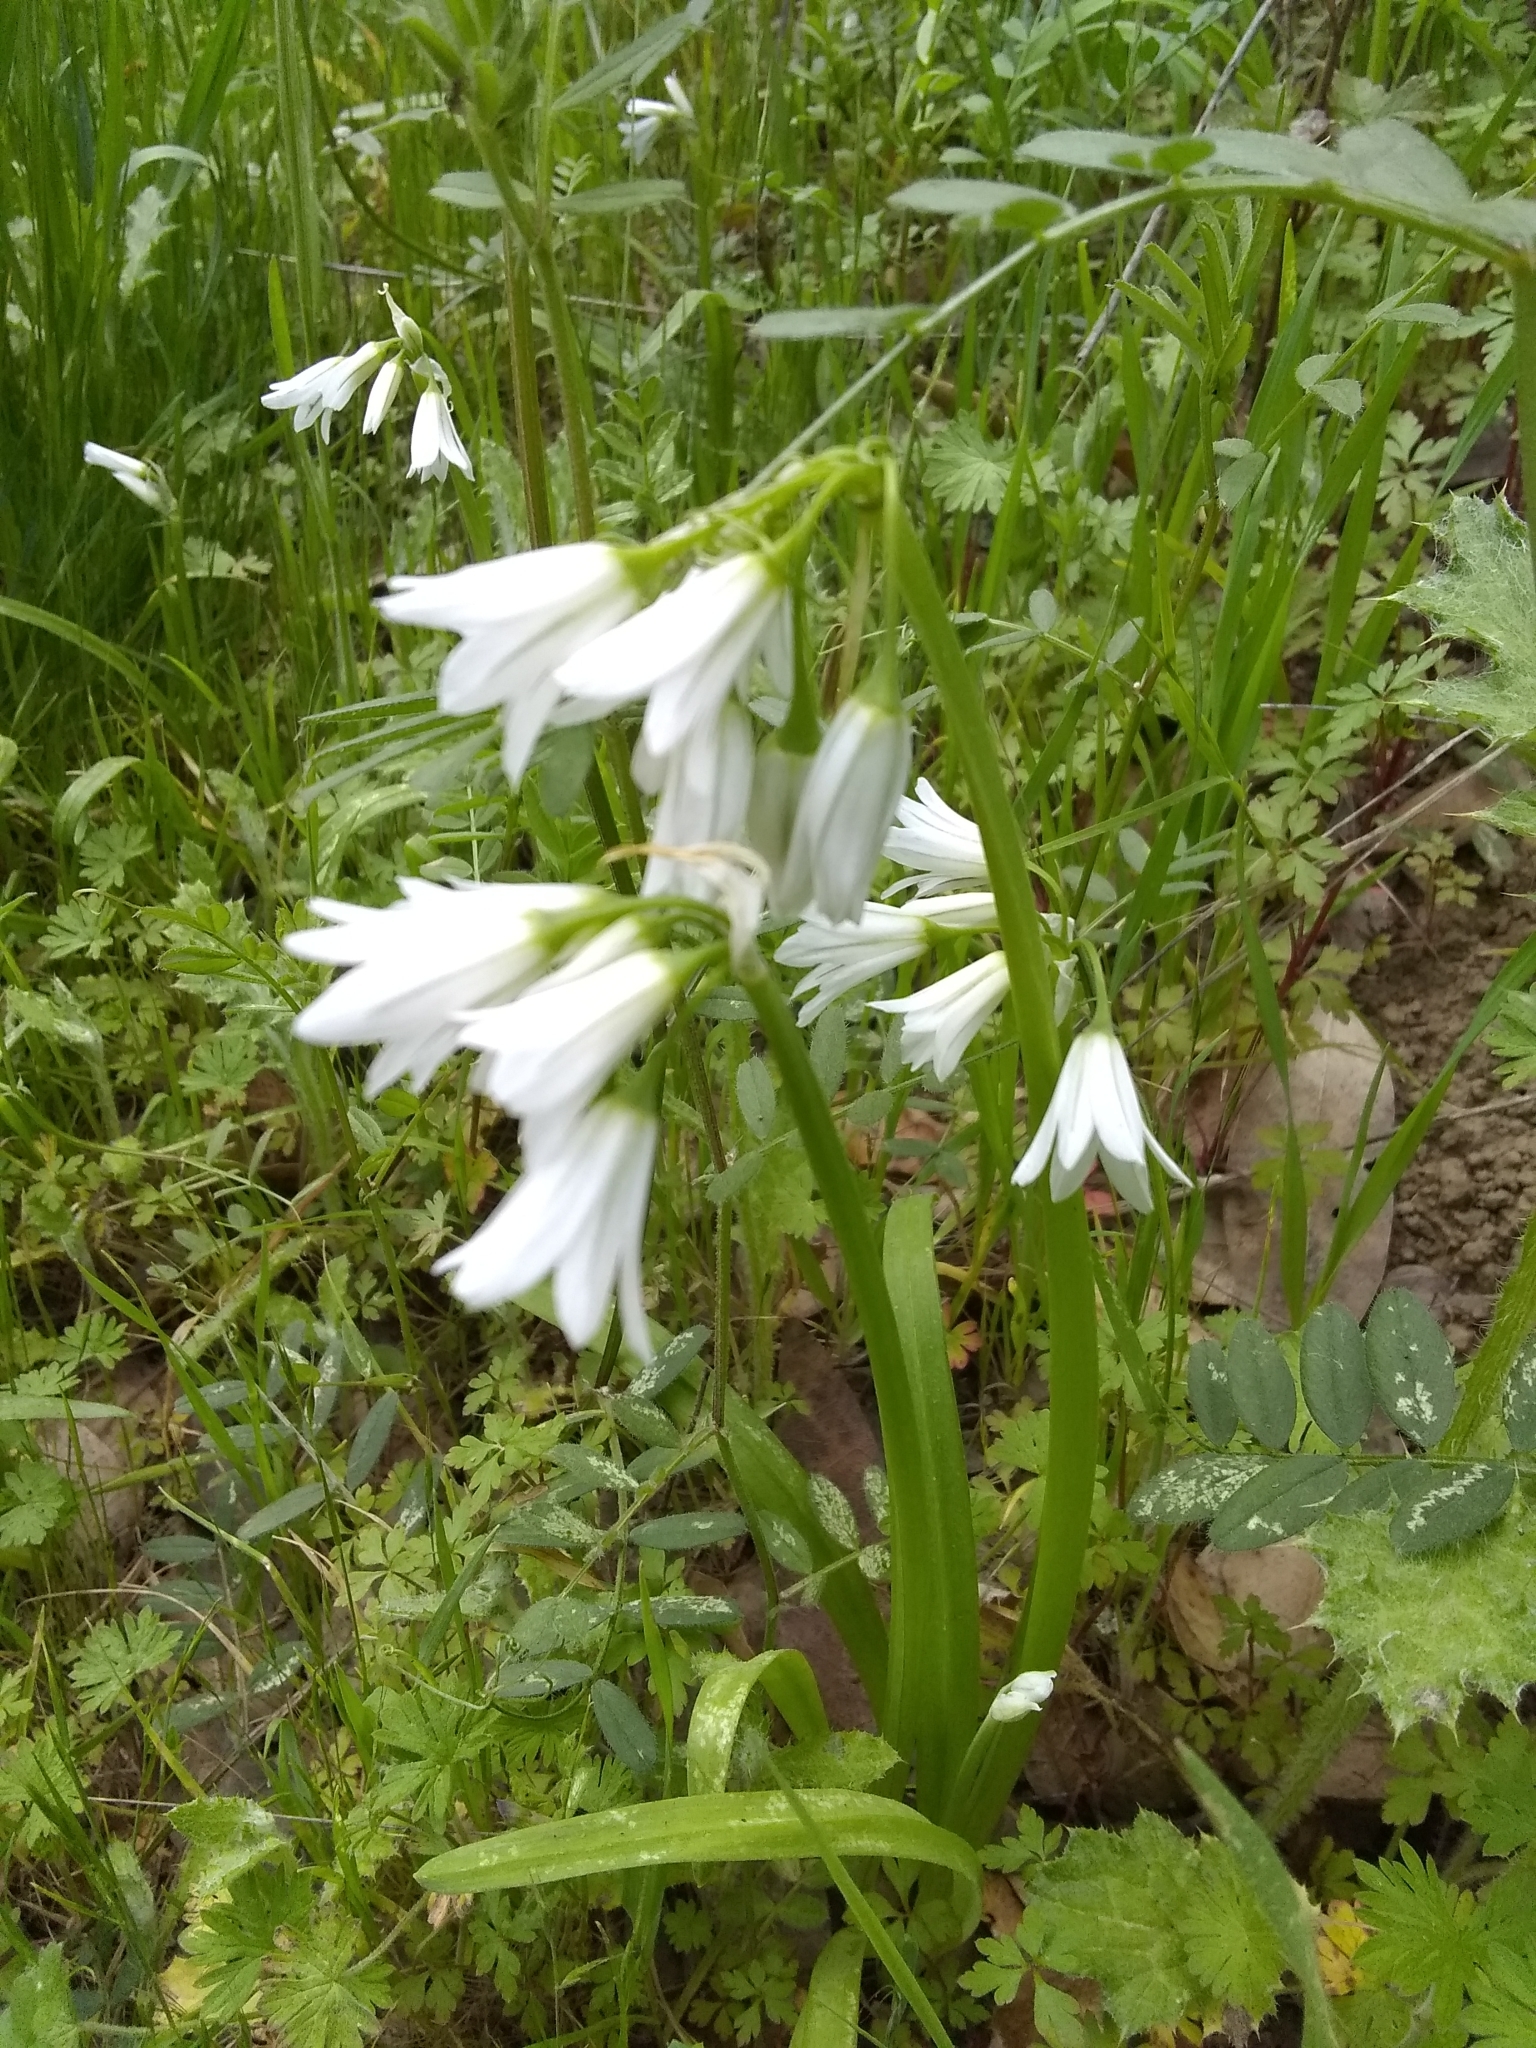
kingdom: Plantae
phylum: Tracheophyta
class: Liliopsida
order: Asparagales
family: Amaryllidaceae
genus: Allium
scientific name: Allium triquetrum
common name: Three-cornered garlic
